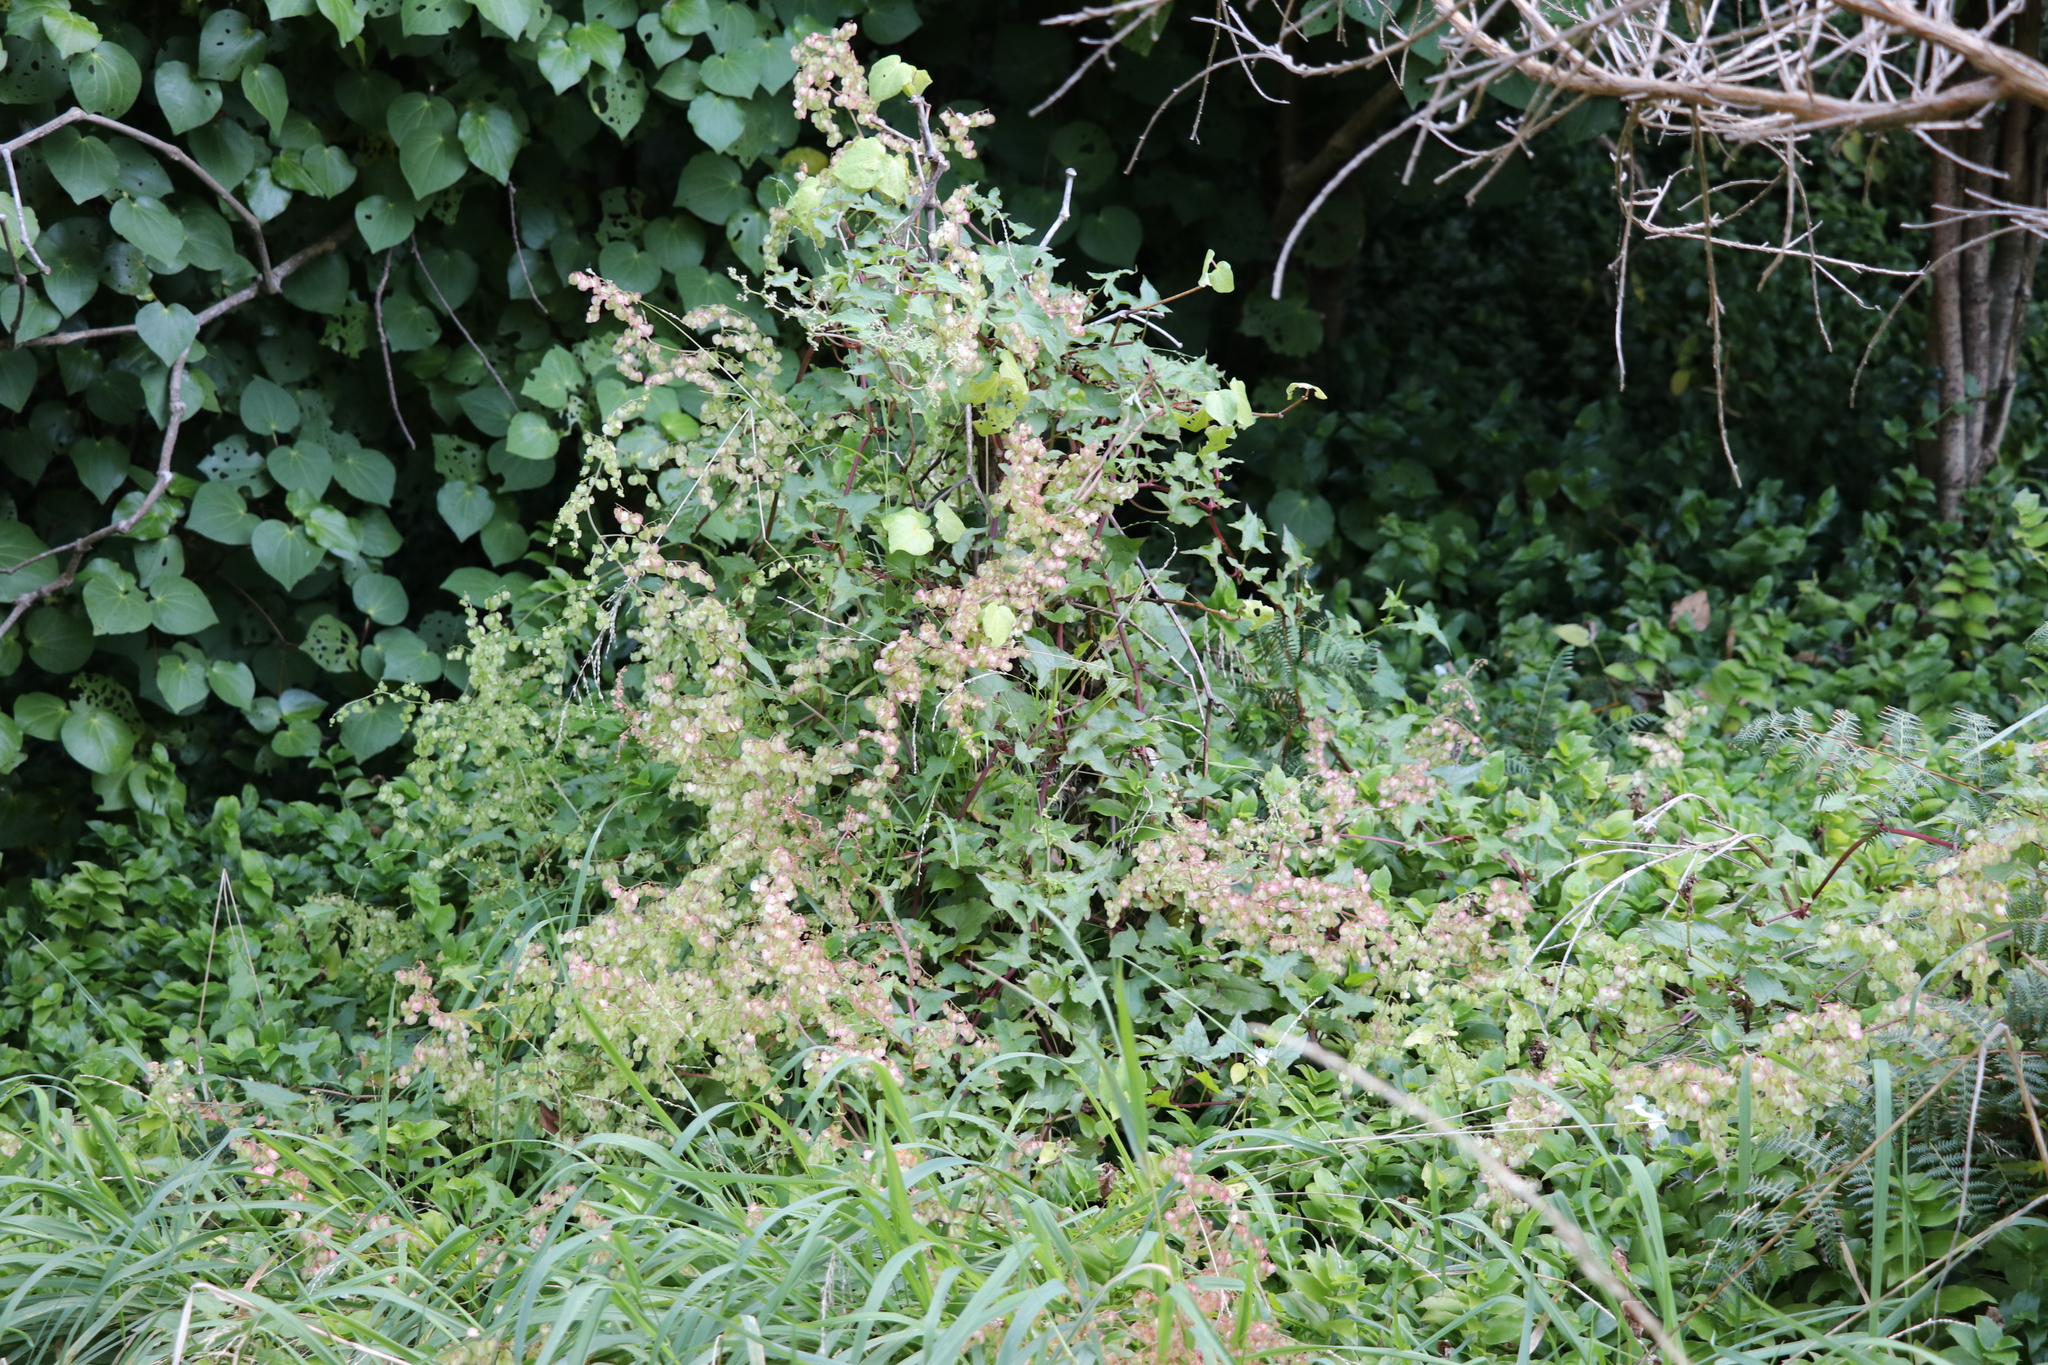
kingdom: Plantae
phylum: Tracheophyta
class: Magnoliopsida
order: Caryophyllales
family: Polygonaceae
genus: Rumex
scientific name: Rumex sagittatus
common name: Climbing dock
